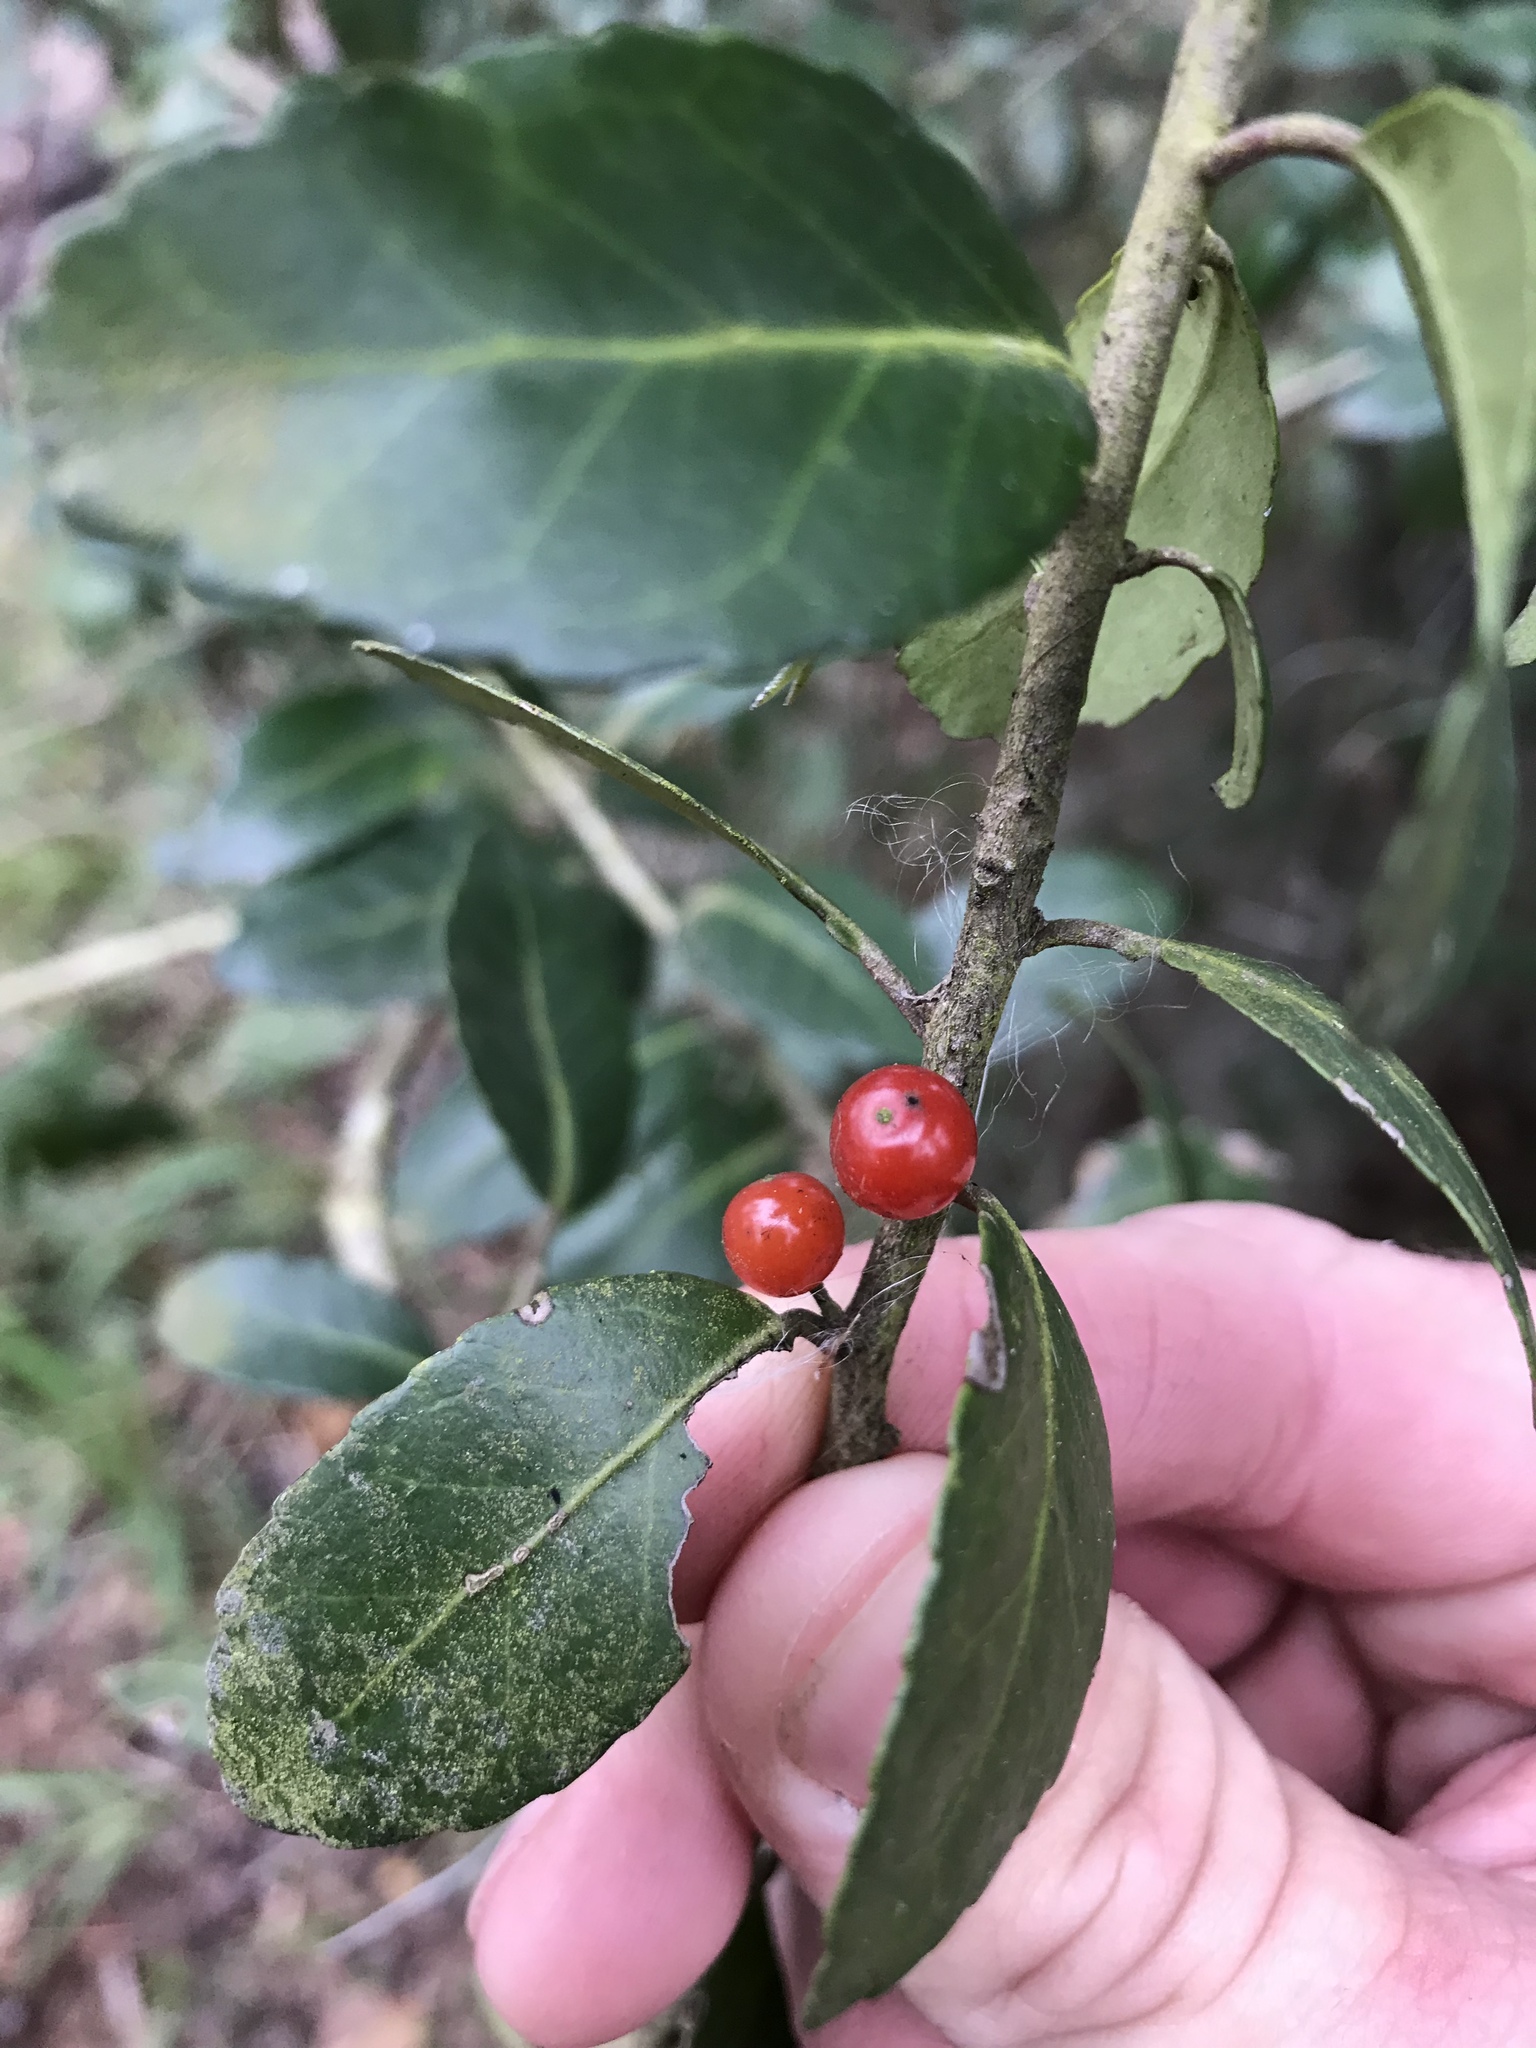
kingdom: Plantae
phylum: Tracheophyta
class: Magnoliopsida
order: Aquifoliales
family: Aquifoliaceae
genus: Ilex
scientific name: Ilex vomitoria
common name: Yaupon holly
